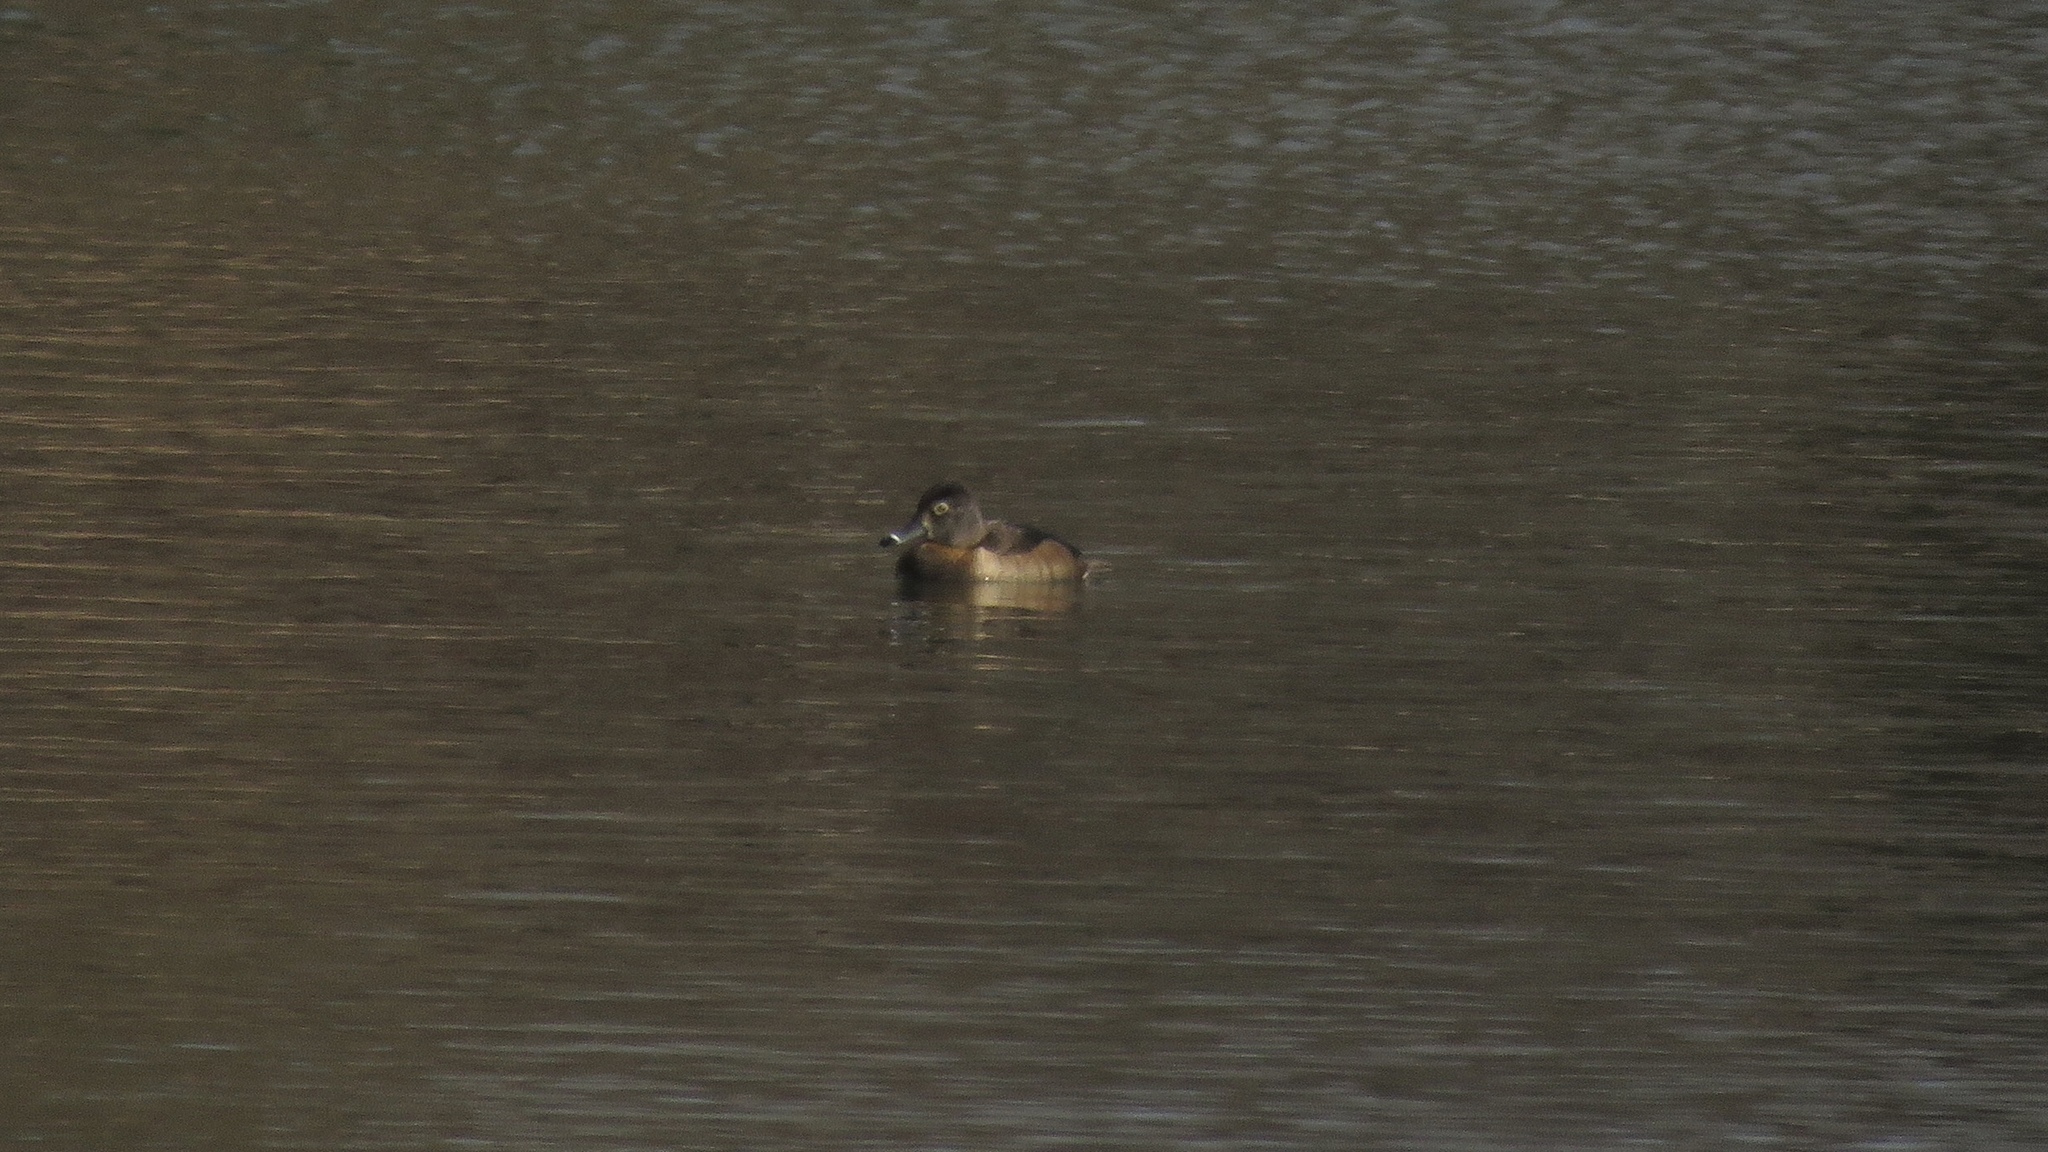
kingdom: Animalia
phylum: Chordata
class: Aves
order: Anseriformes
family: Anatidae
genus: Aythya
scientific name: Aythya collaris
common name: Ring-necked duck
